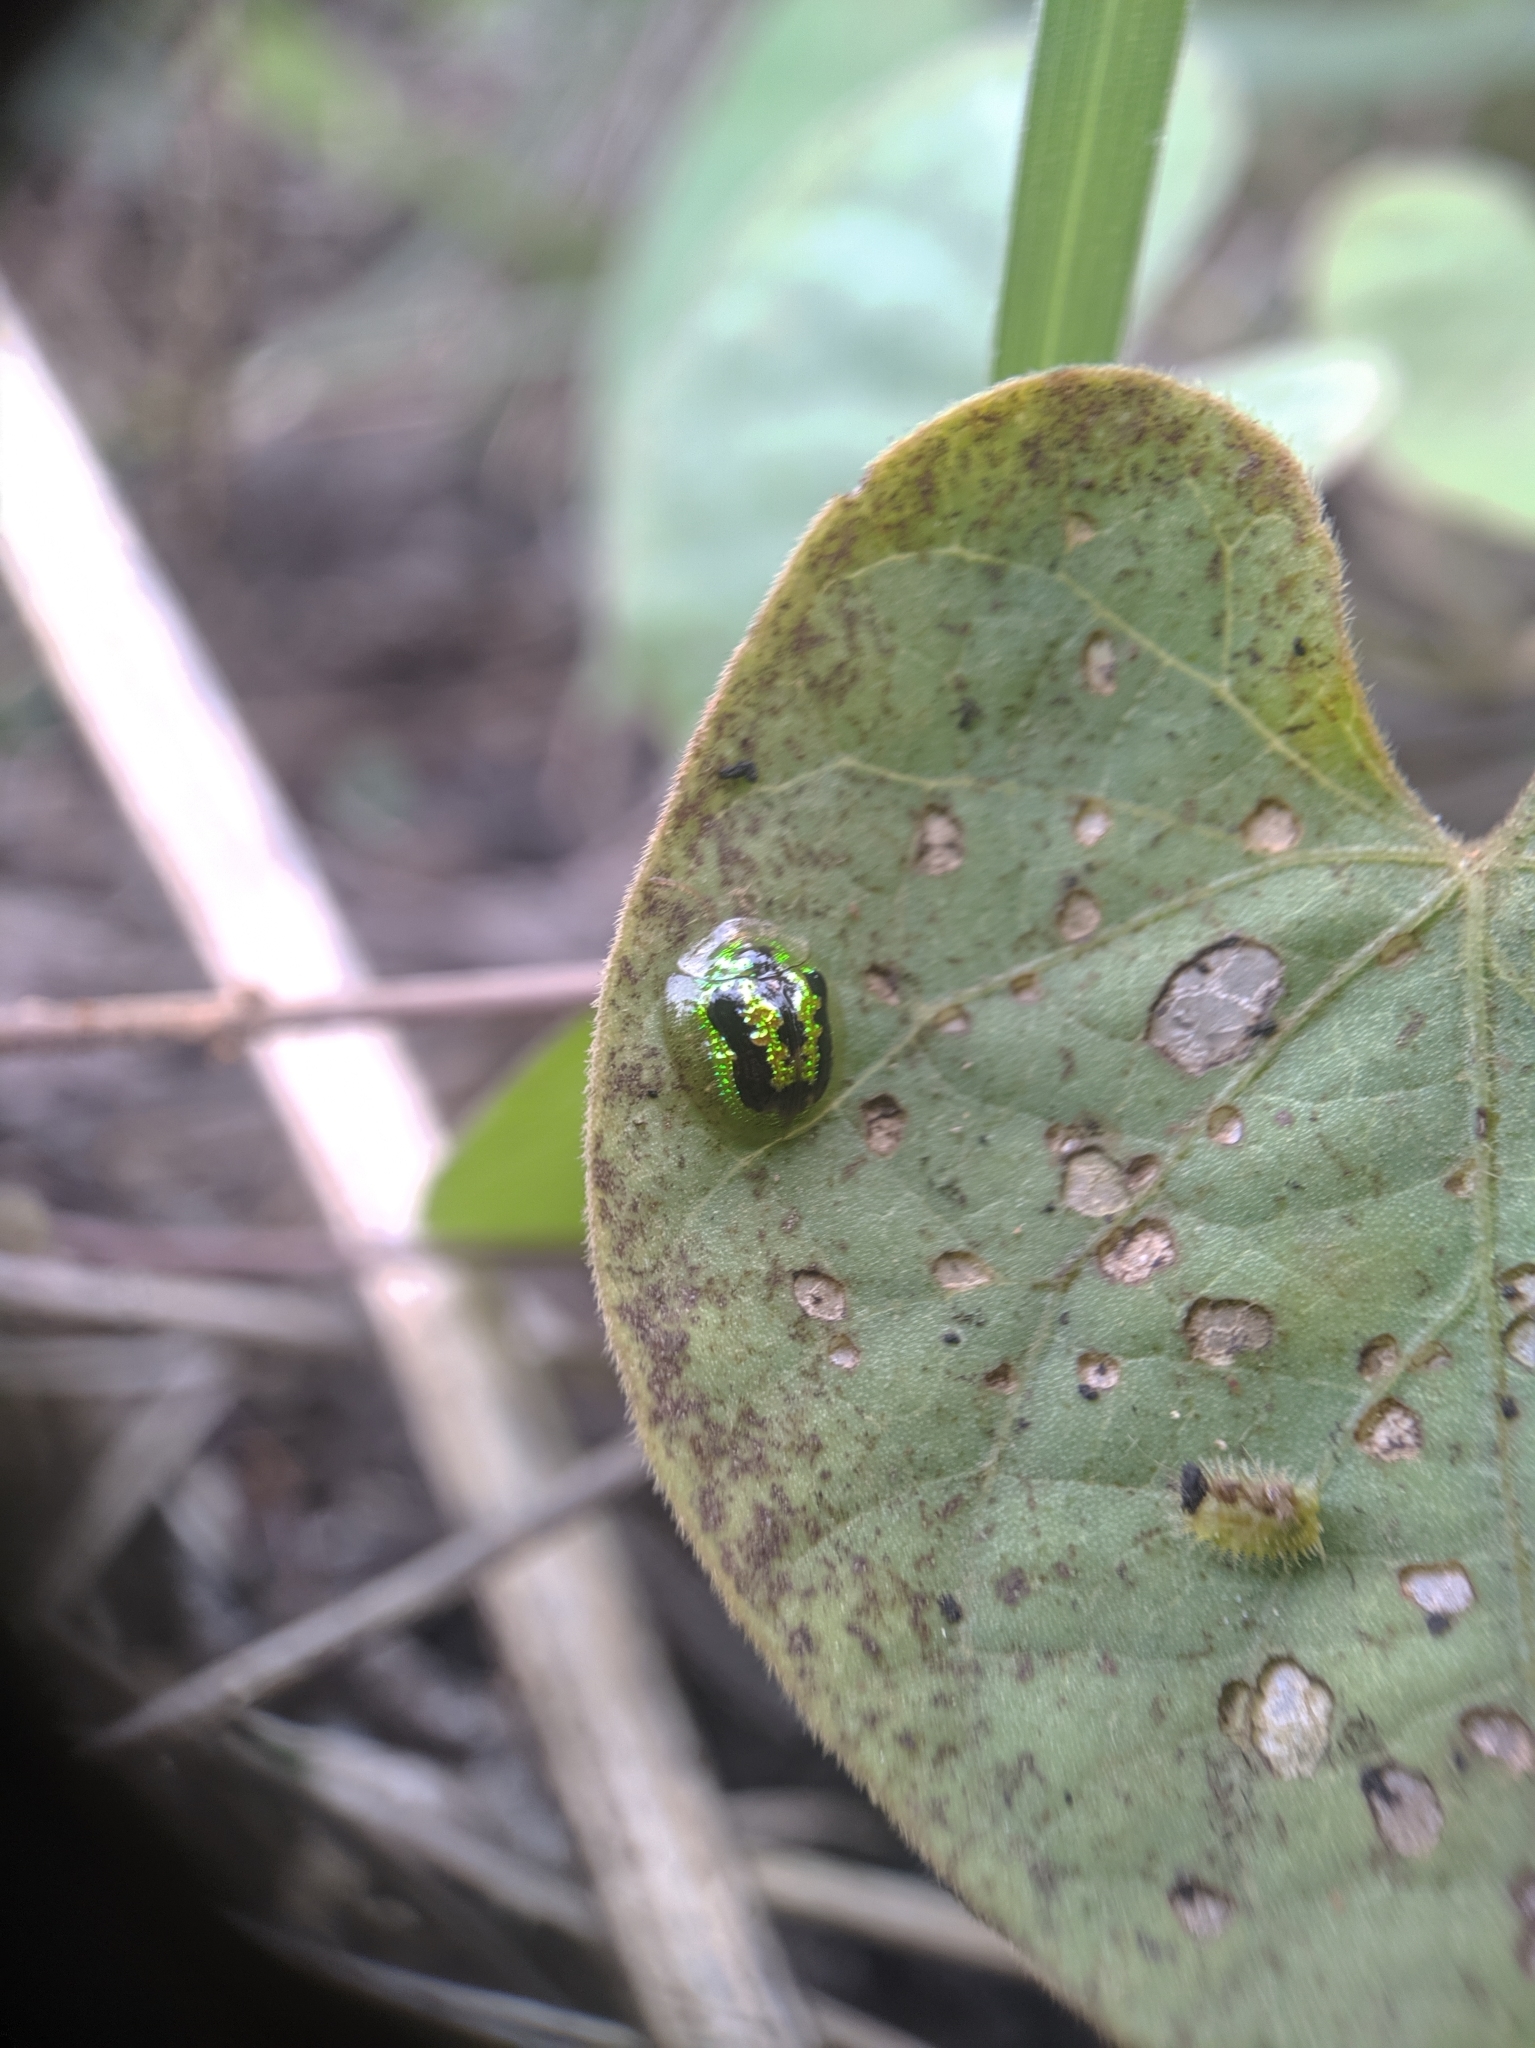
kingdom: Animalia
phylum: Arthropoda
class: Insecta
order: Coleoptera
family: Chrysomelidae
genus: Cassida
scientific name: Cassida circumdata
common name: Tortoise beetle
